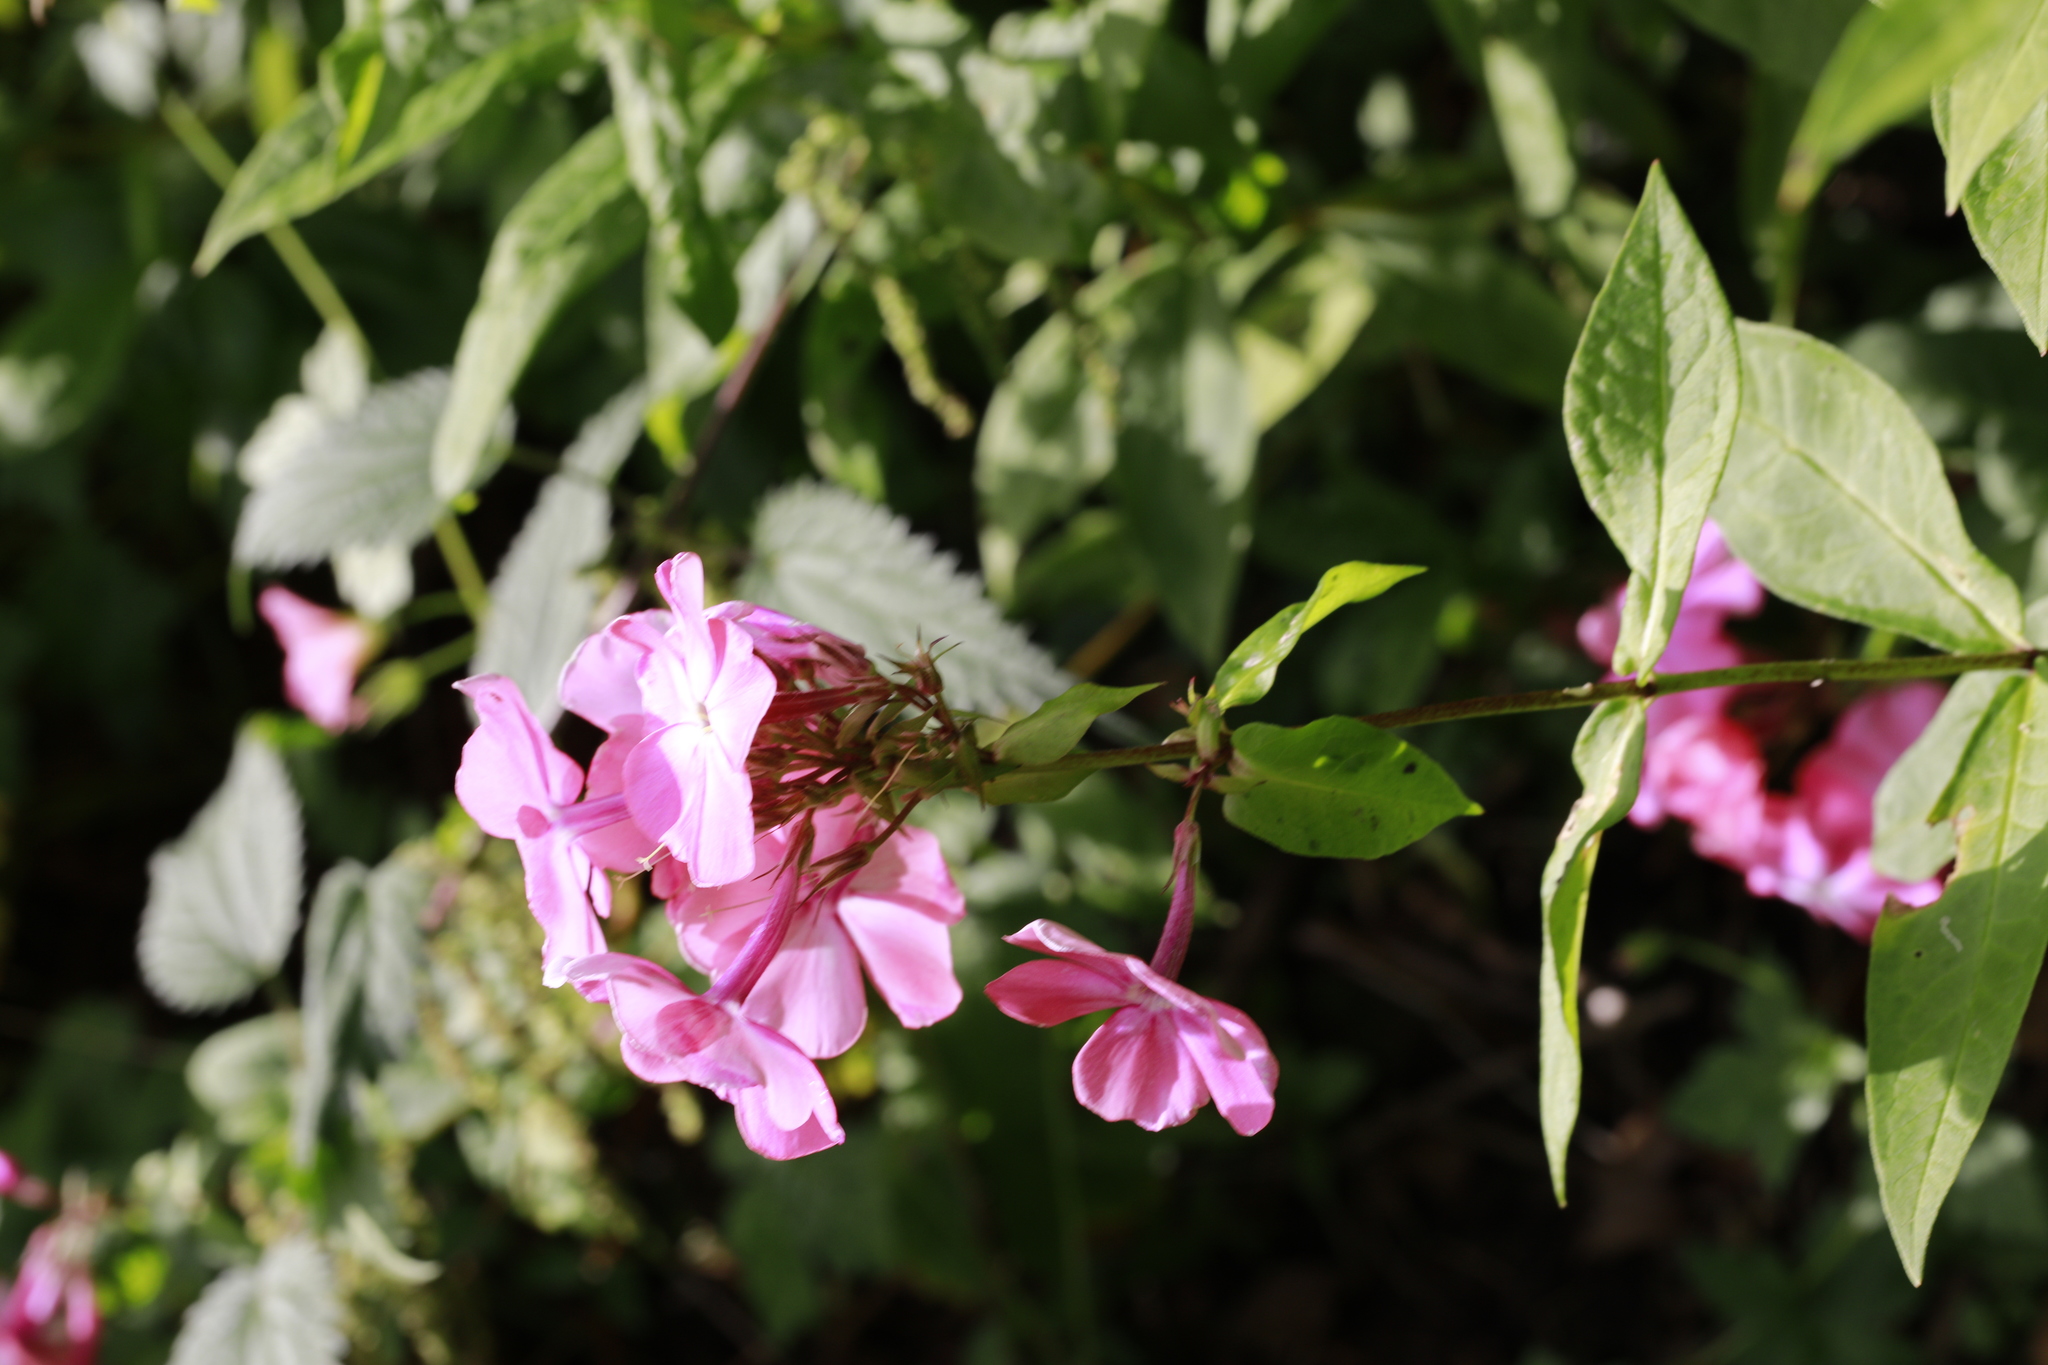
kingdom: Plantae
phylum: Tracheophyta
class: Magnoliopsida
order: Ericales
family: Polemoniaceae
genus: Phlox
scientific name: Phlox paniculata
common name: Fall phlox
